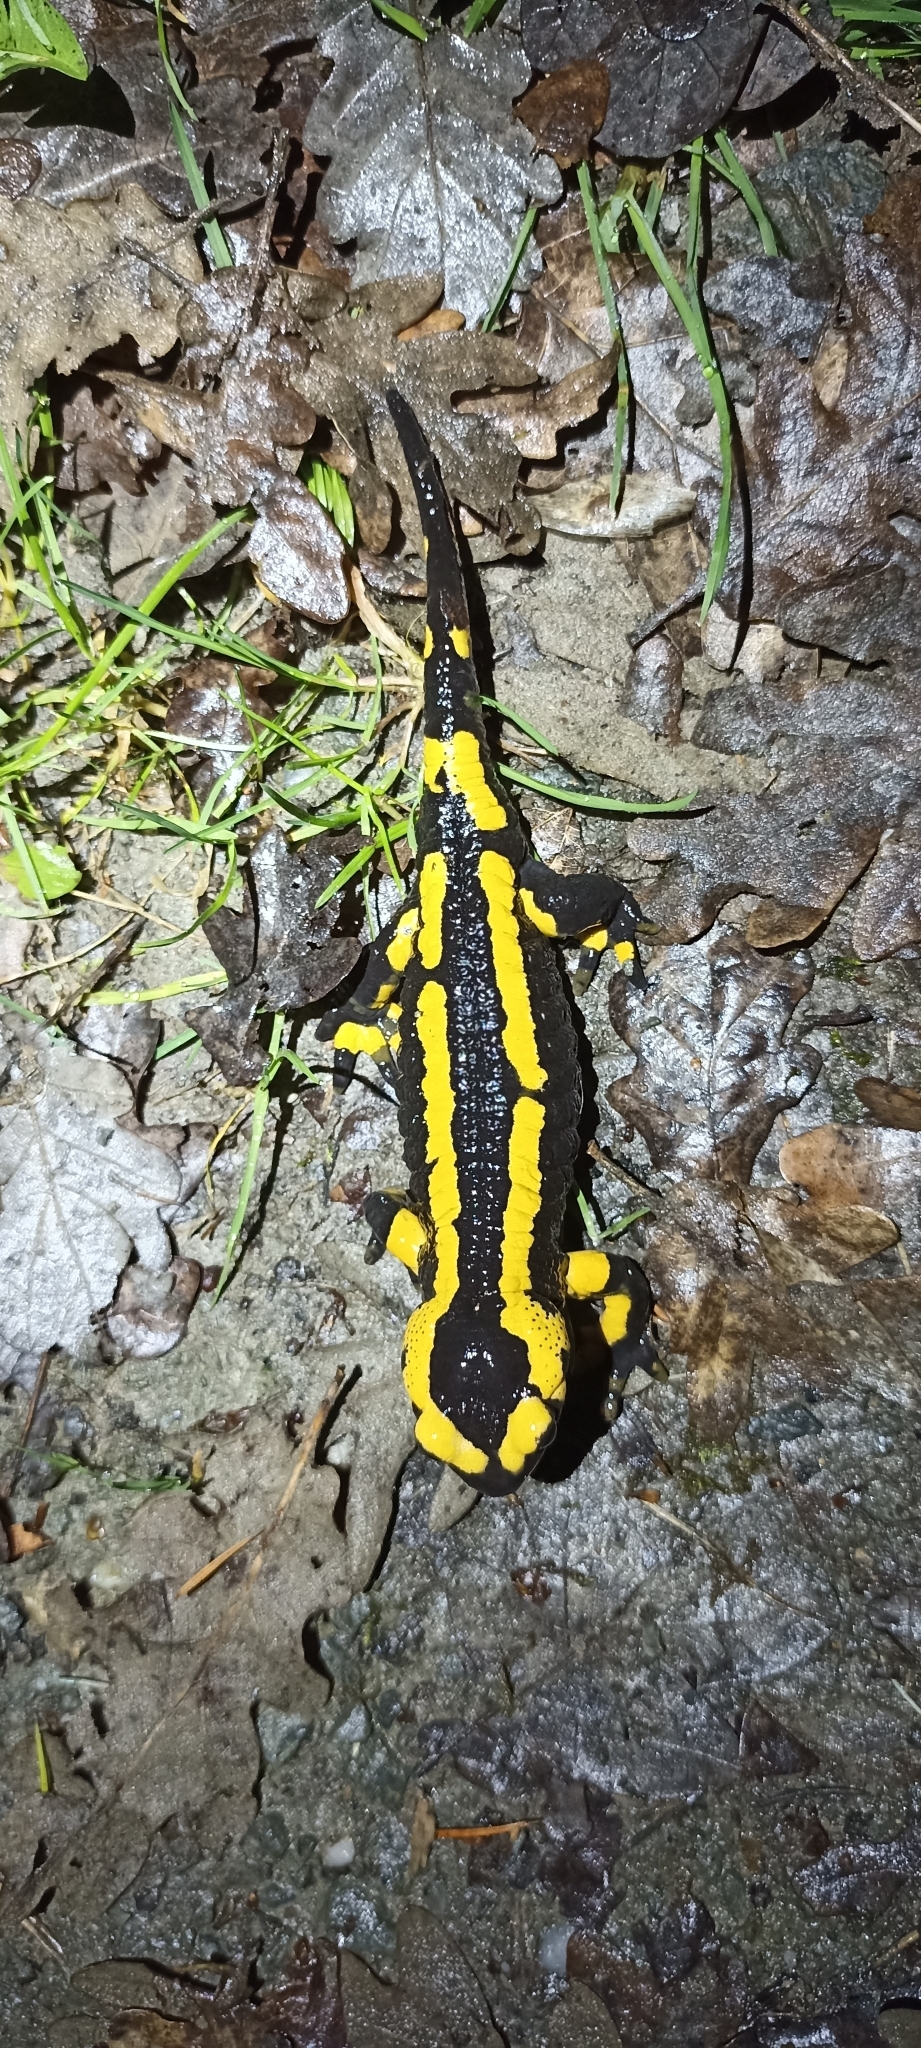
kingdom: Animalia
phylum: Chordata
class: Amphibia
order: Caudata
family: Salamandridae
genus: Salamandra
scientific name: Salamandra salamandra
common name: Fire salamander
